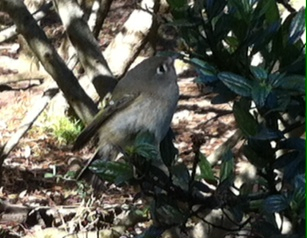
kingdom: Animalia
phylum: Chordata
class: Aves
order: Passeriformes
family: Regulidae
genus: Regulus
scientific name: Regulus calendula
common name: Ruby-crowned kinglet
